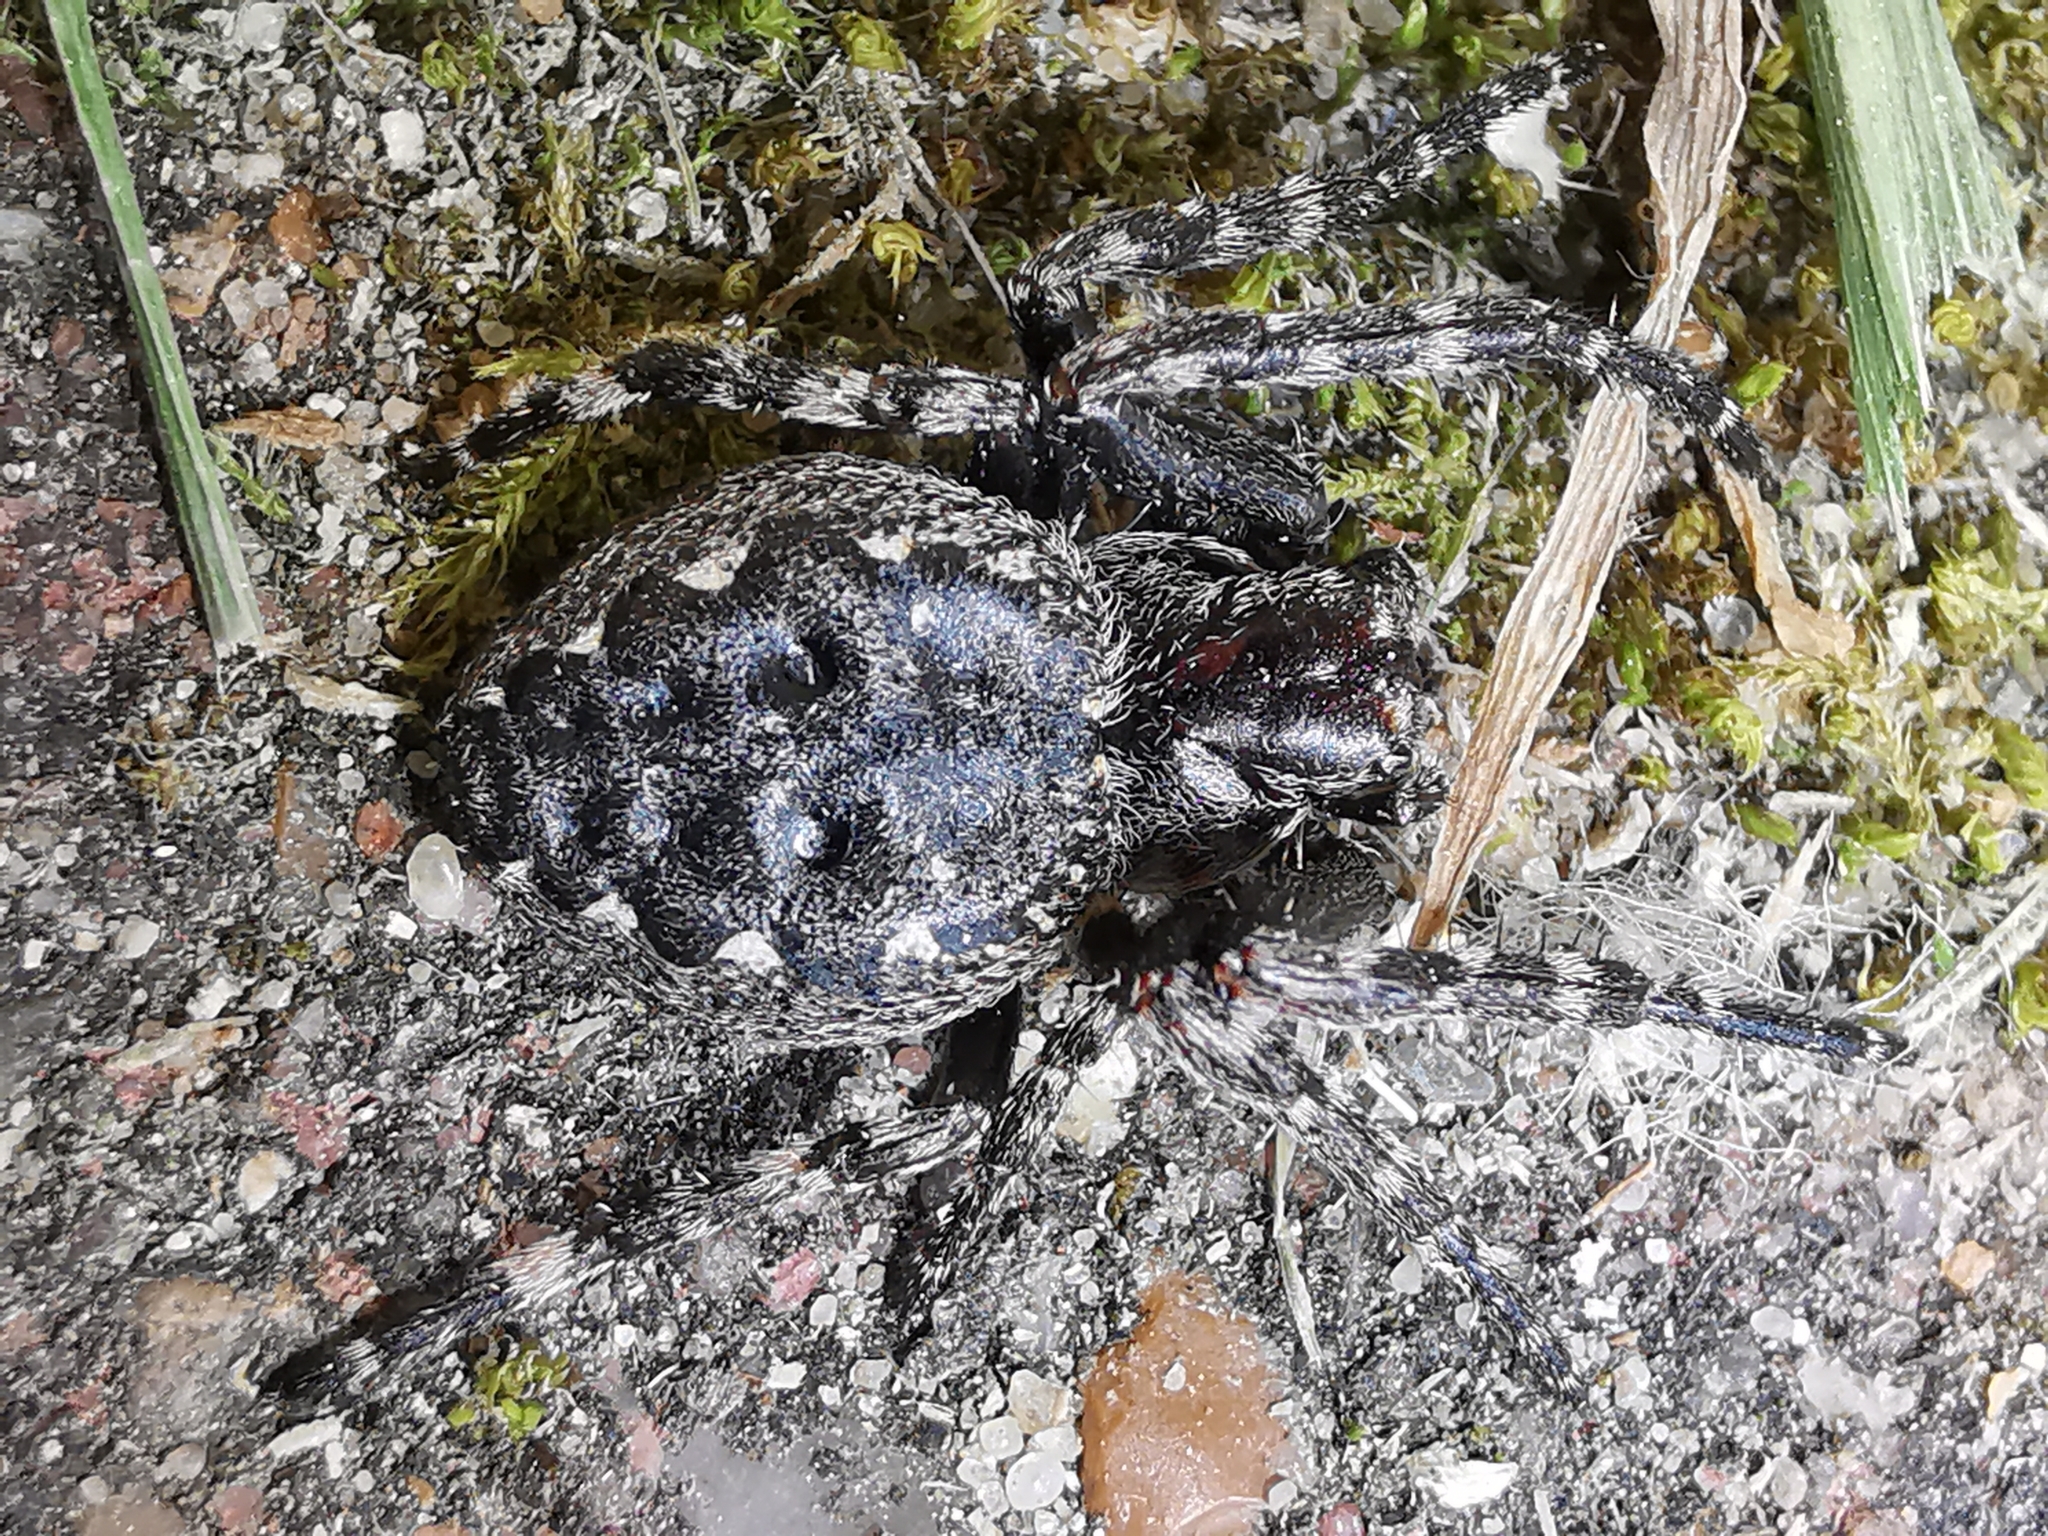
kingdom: Animalia
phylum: Arthropoda
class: Arachnida
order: Araneae
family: Araneidae
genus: Nuctenea
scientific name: Nuctenea umbratica
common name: Toad spider
